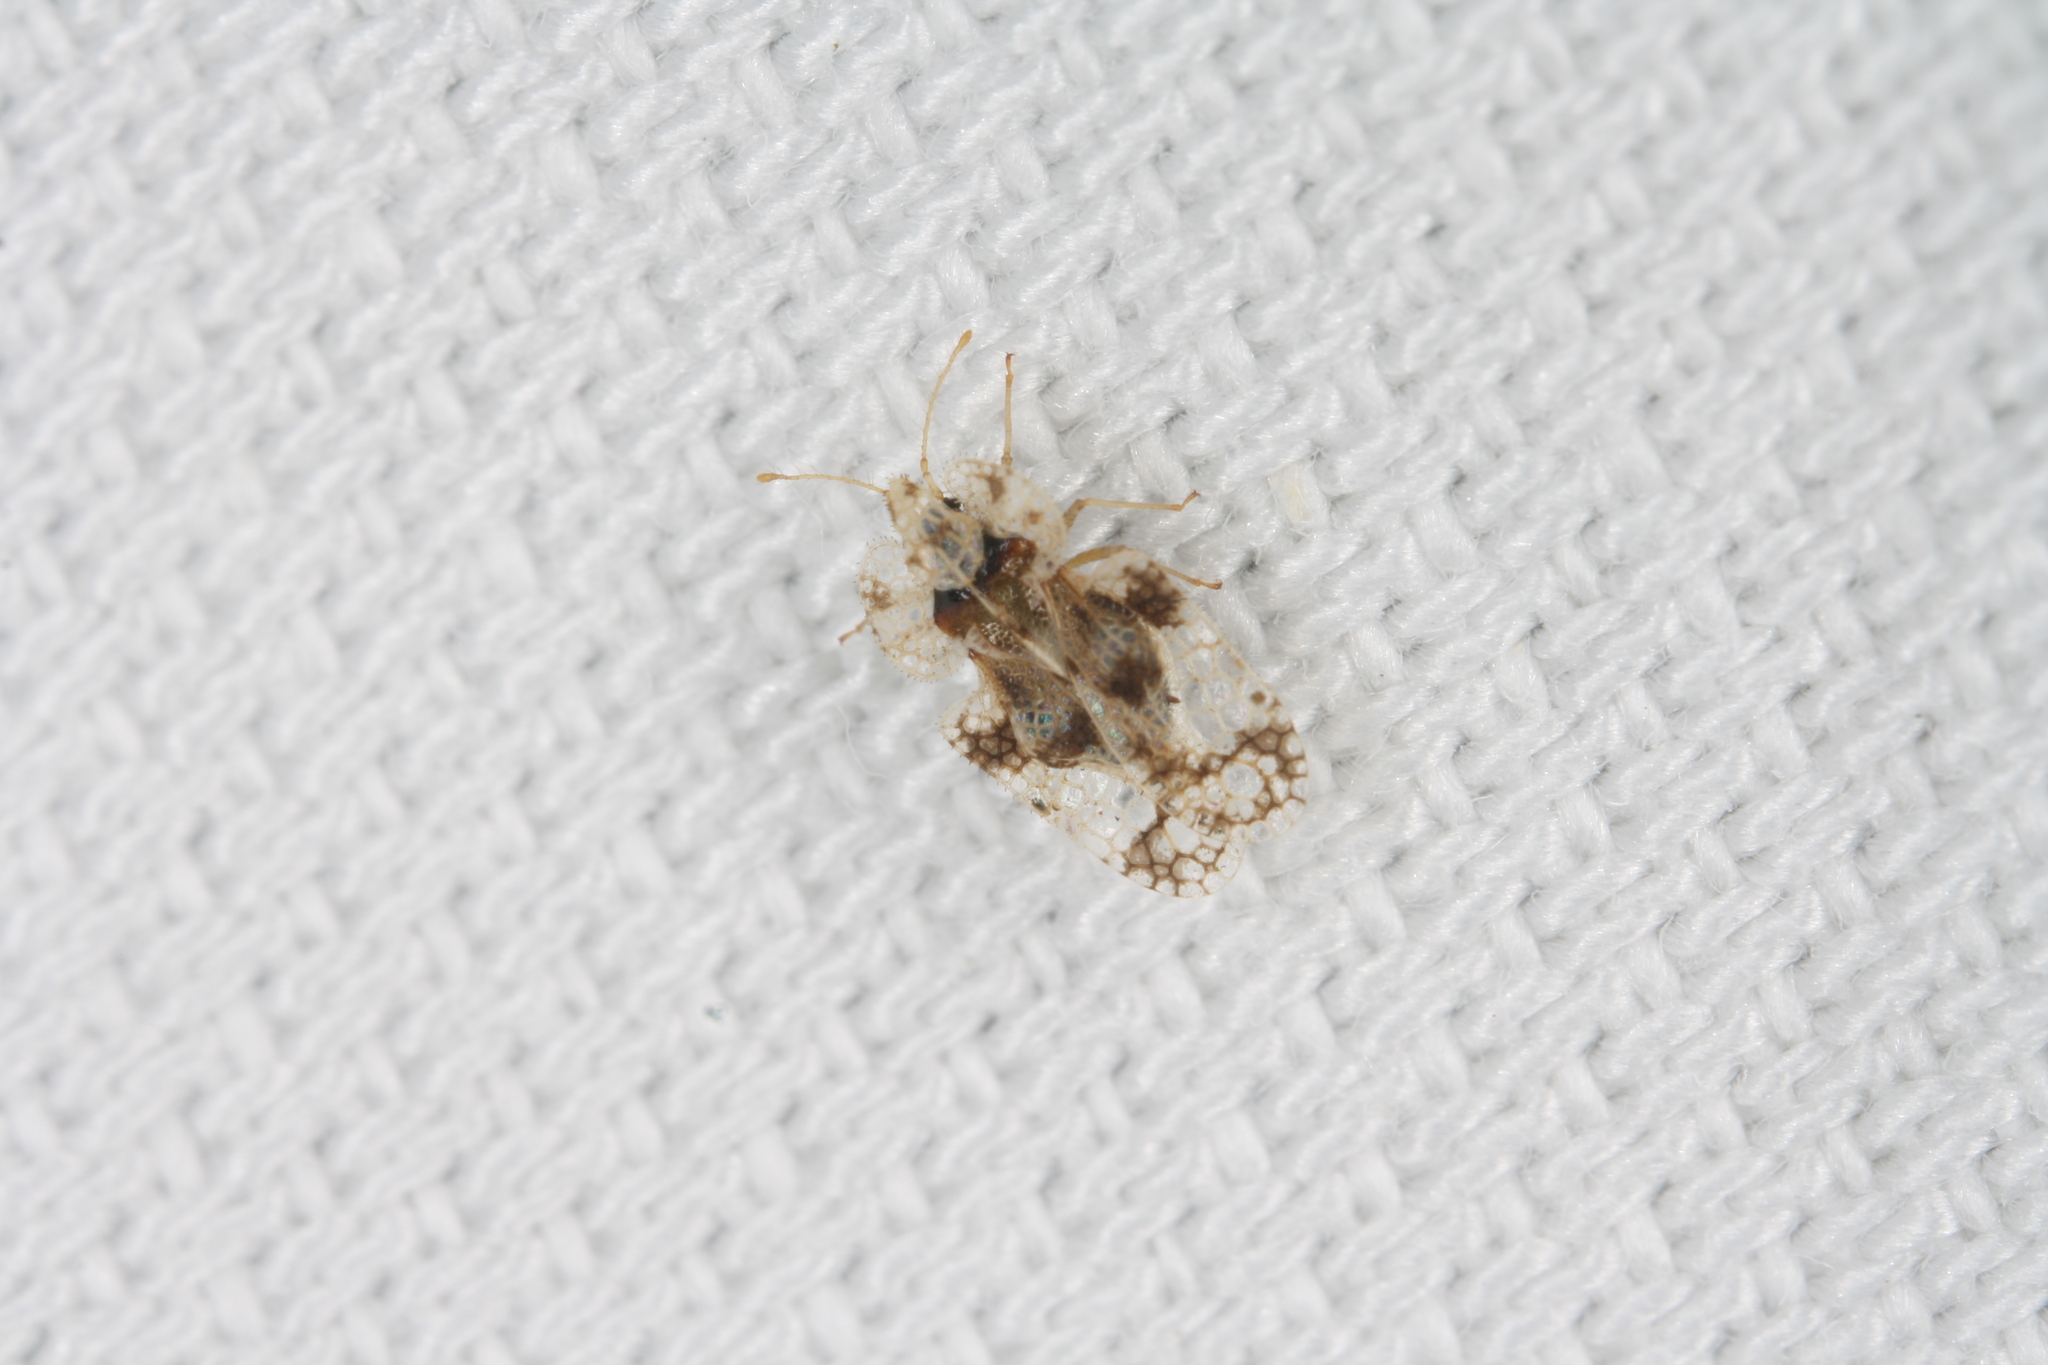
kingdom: Animalia
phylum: Arthropoda
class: Insecta
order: Hemiptera
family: Tingidae
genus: Corythucha
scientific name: Corythucha arcuata
